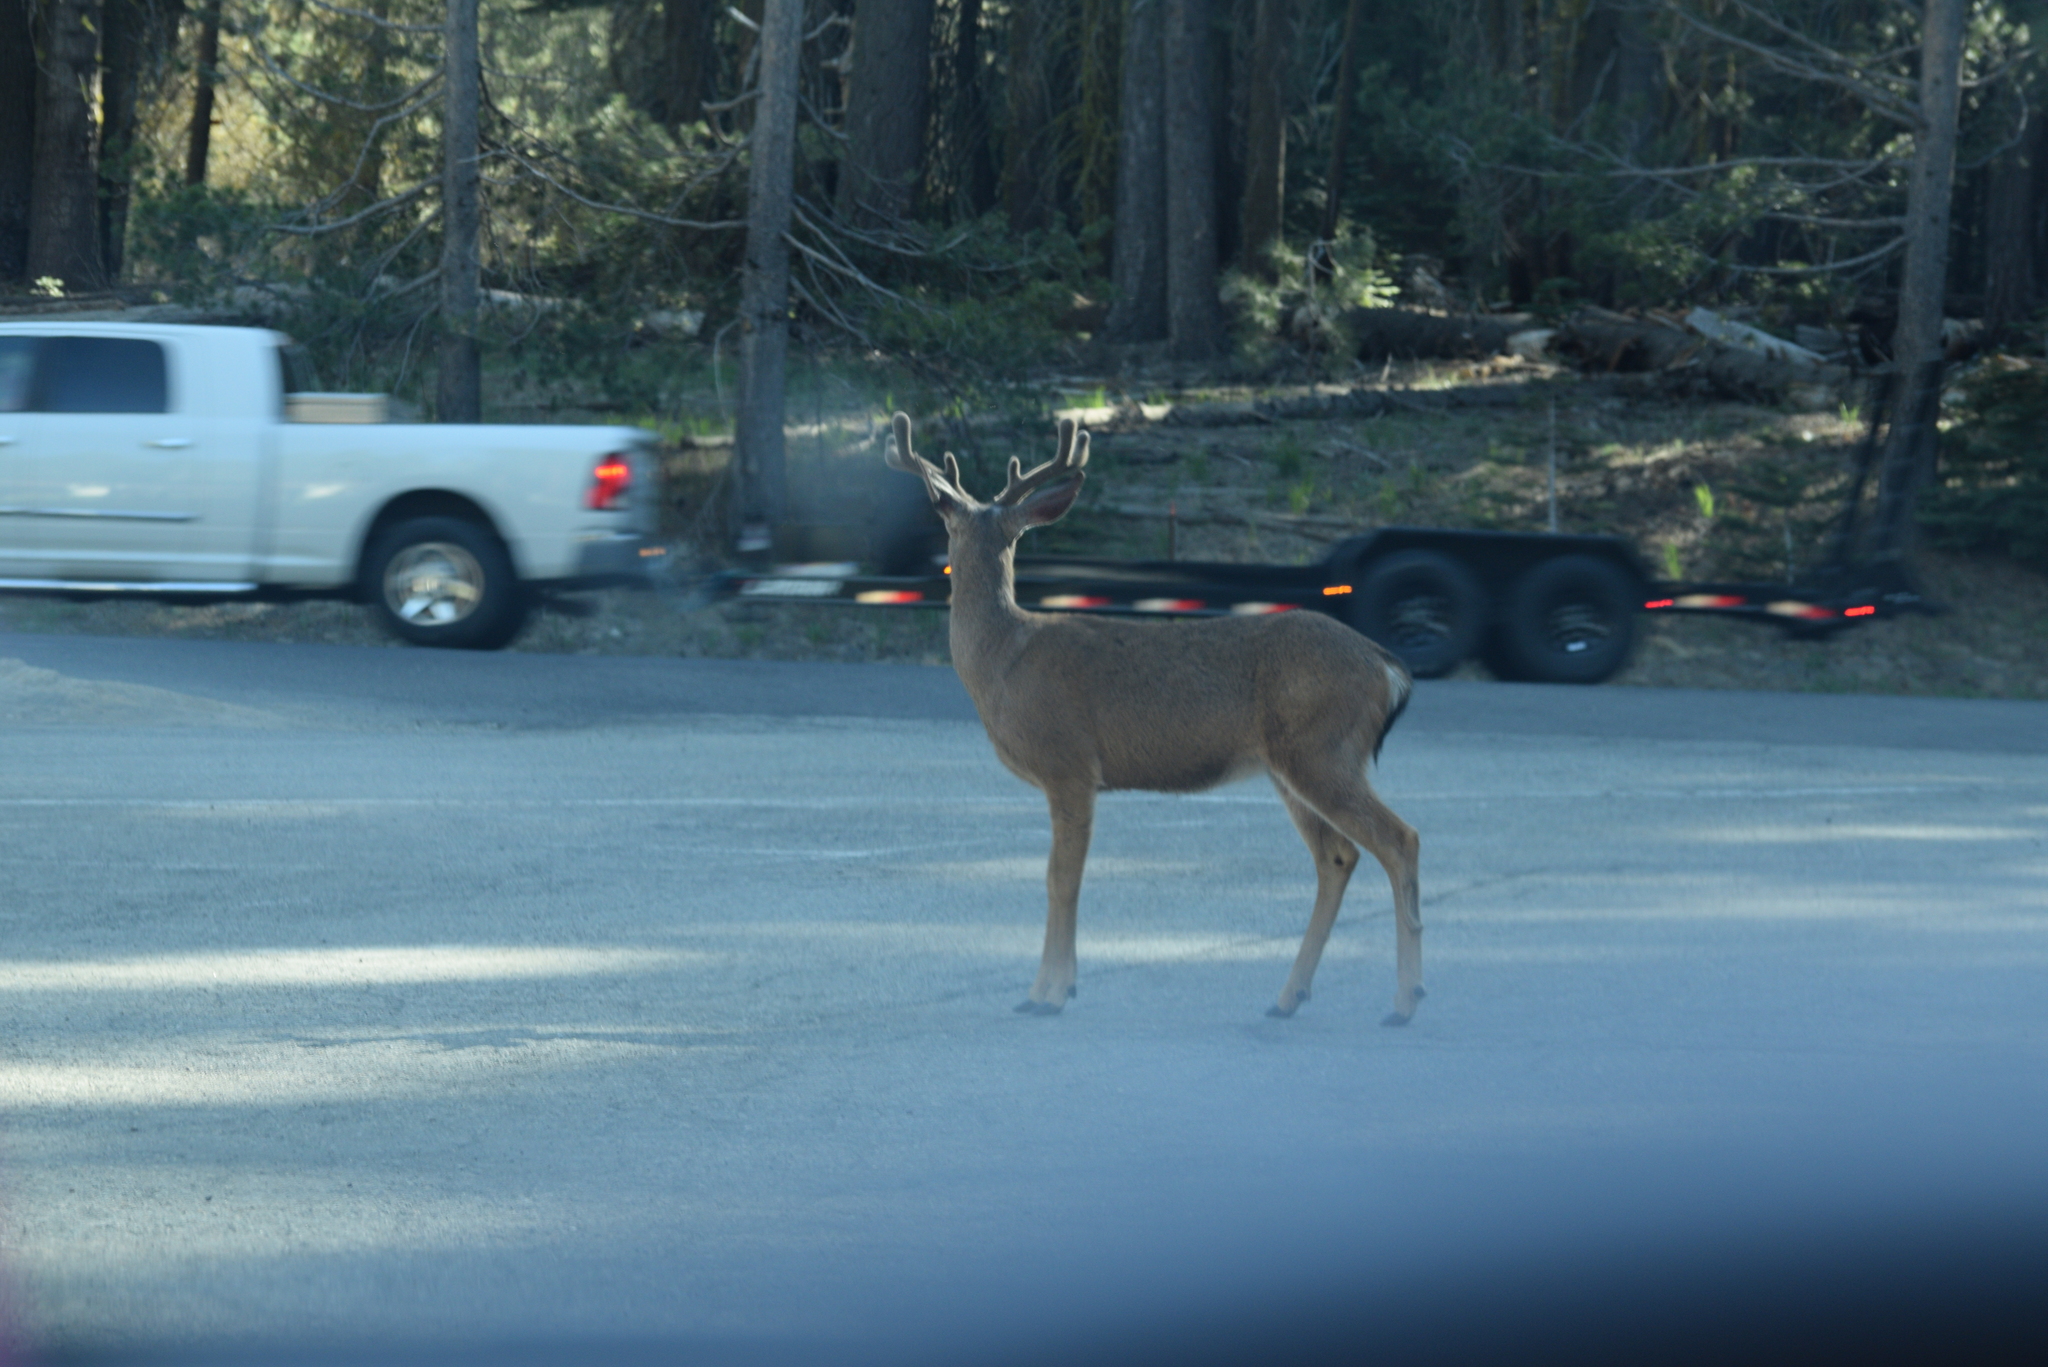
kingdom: Animalia
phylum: Chordata
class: Mammalia
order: Artiodactyla
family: Cervidae
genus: Odocoileus
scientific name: Odocoileus hemionus
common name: Mule deer
